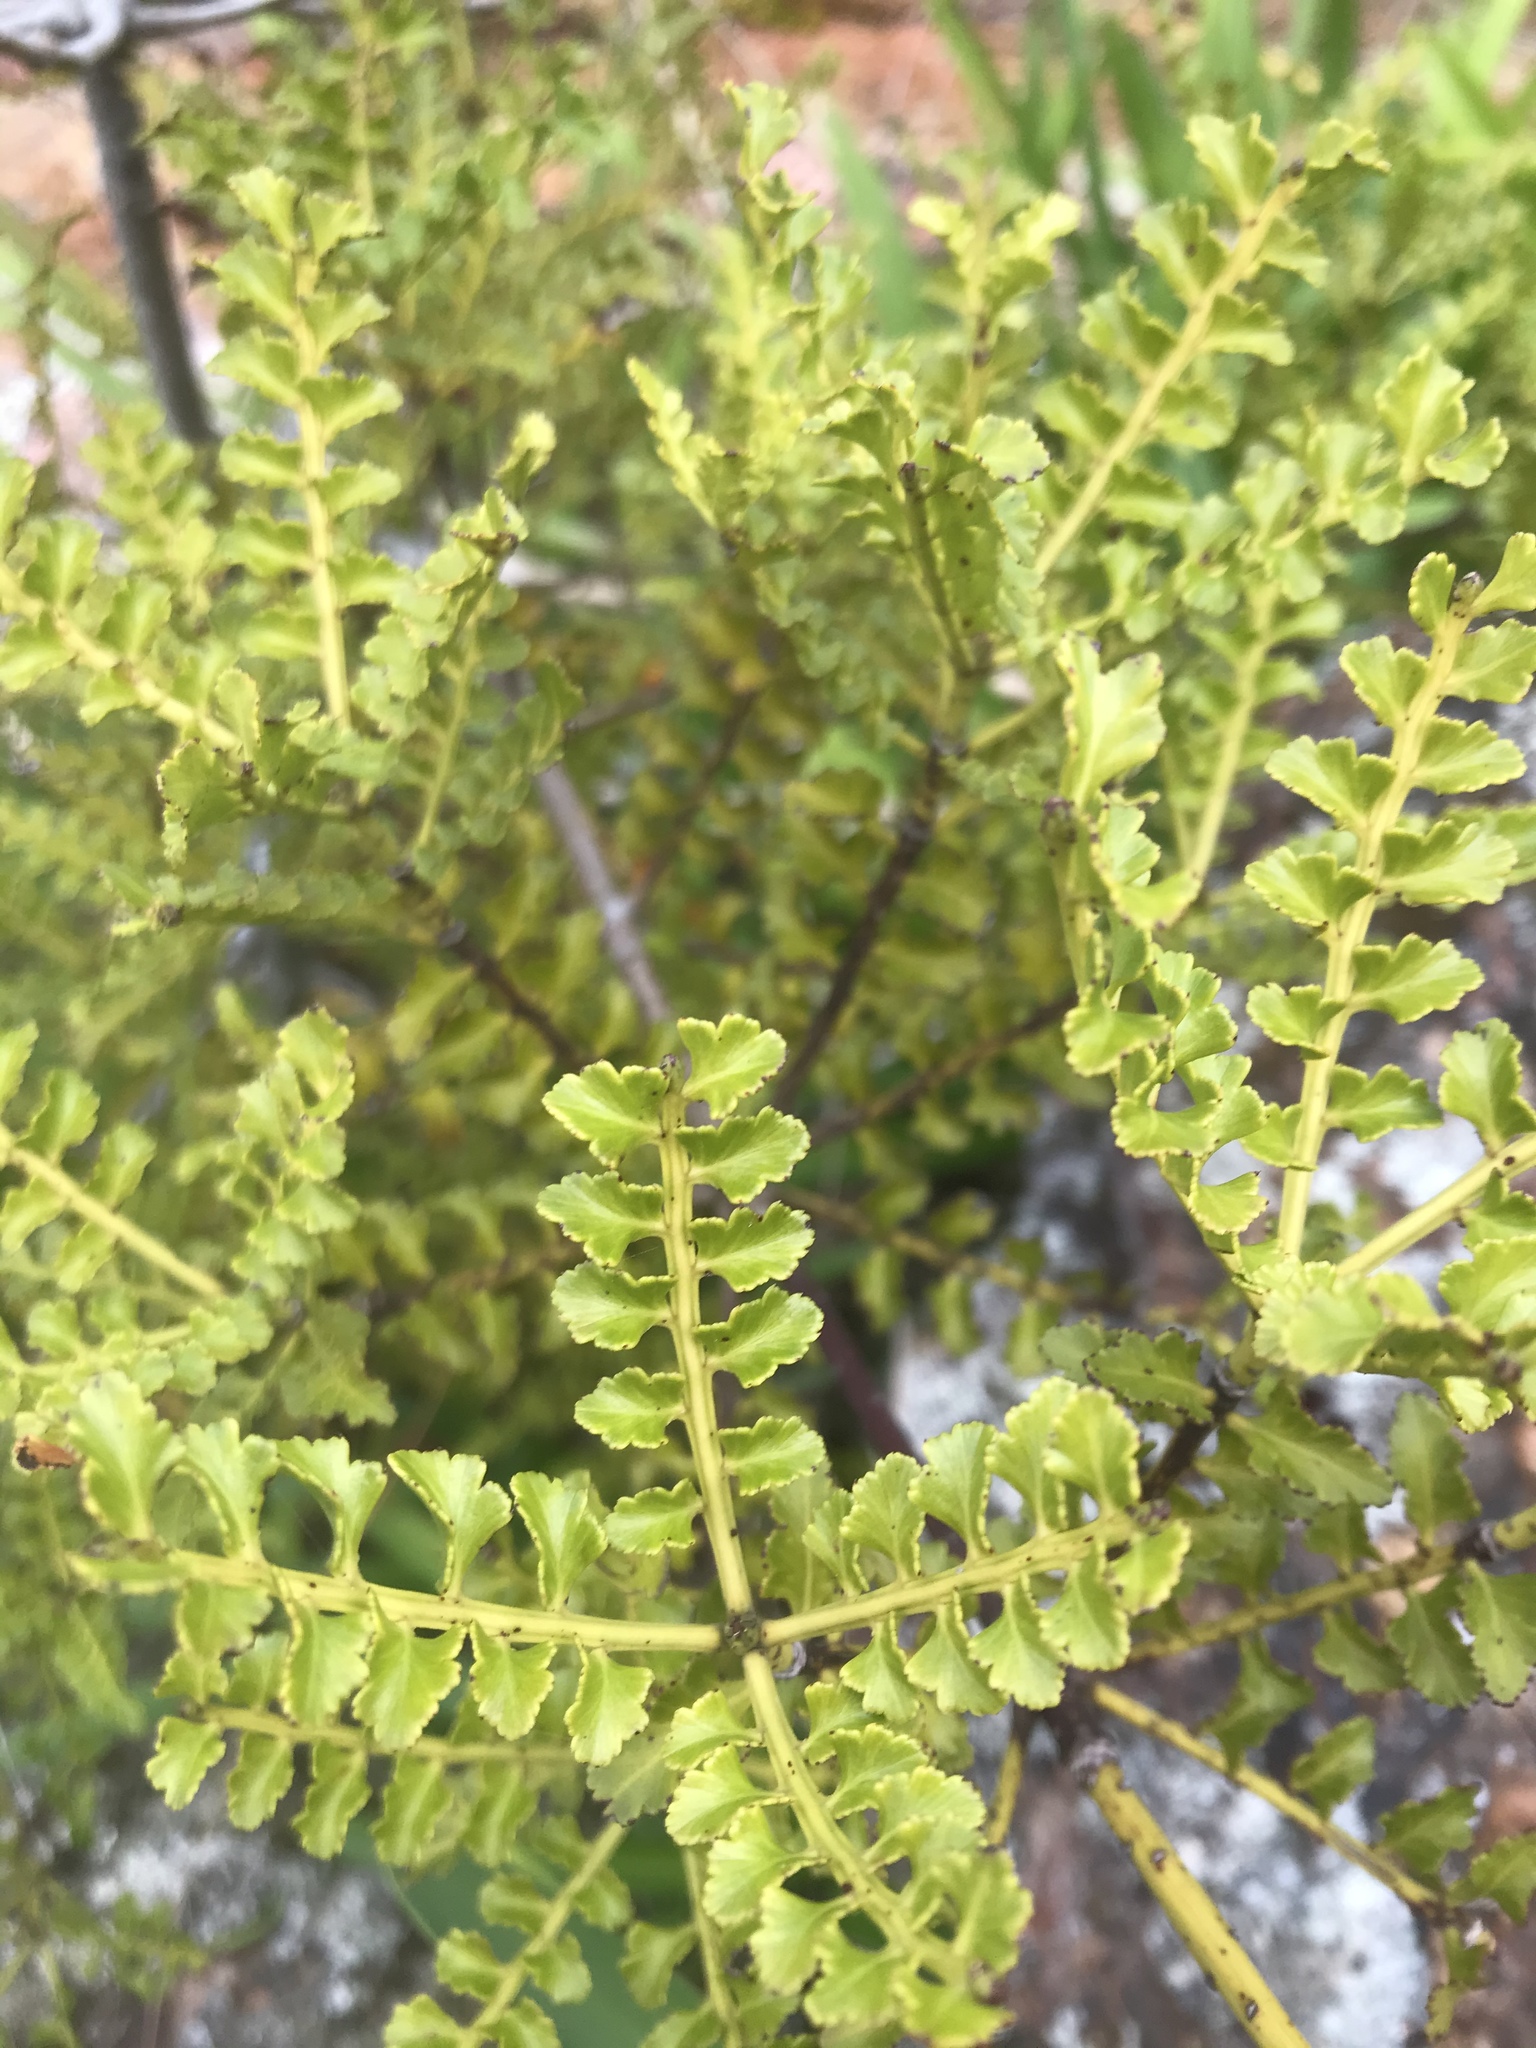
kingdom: Plantae
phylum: Tracheophyta
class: Pinopsida
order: Pinales
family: Phyllocladaceae
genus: Phyllocladus
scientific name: Phyllocladus trichomanoides
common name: Celery pine
